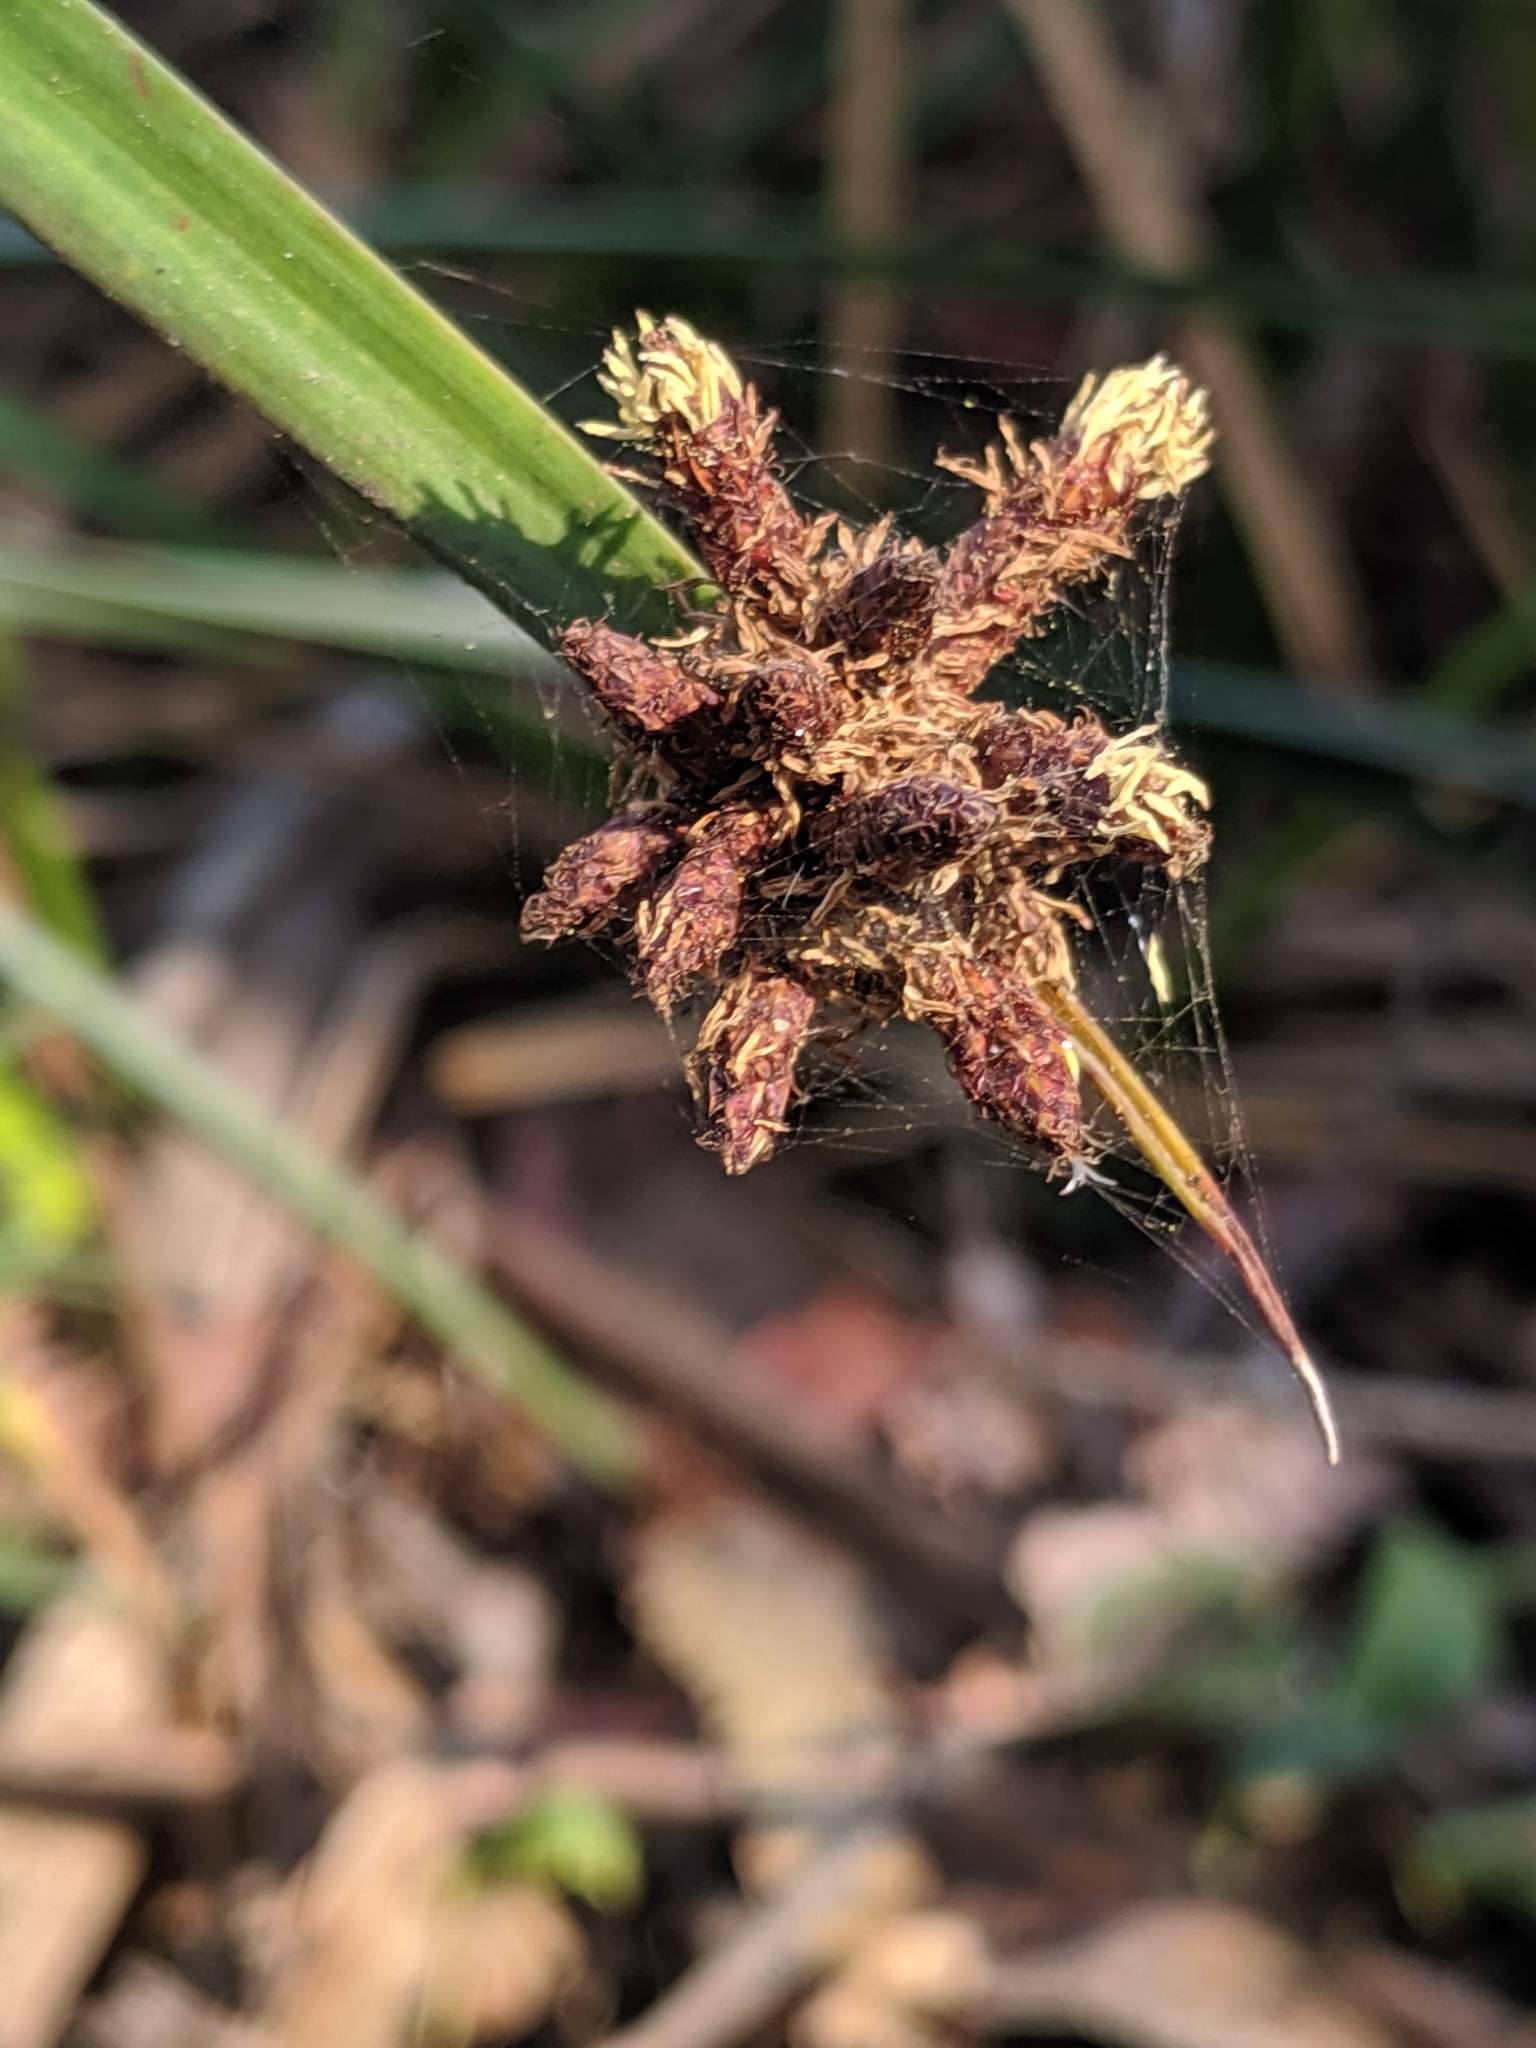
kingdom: Plantae
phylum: Tracheophyta
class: Liliopsida
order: Poales
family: Cyperaceae
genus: Schoenoplectus
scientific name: Schoenoplectus americanus
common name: American three-square bulrush
